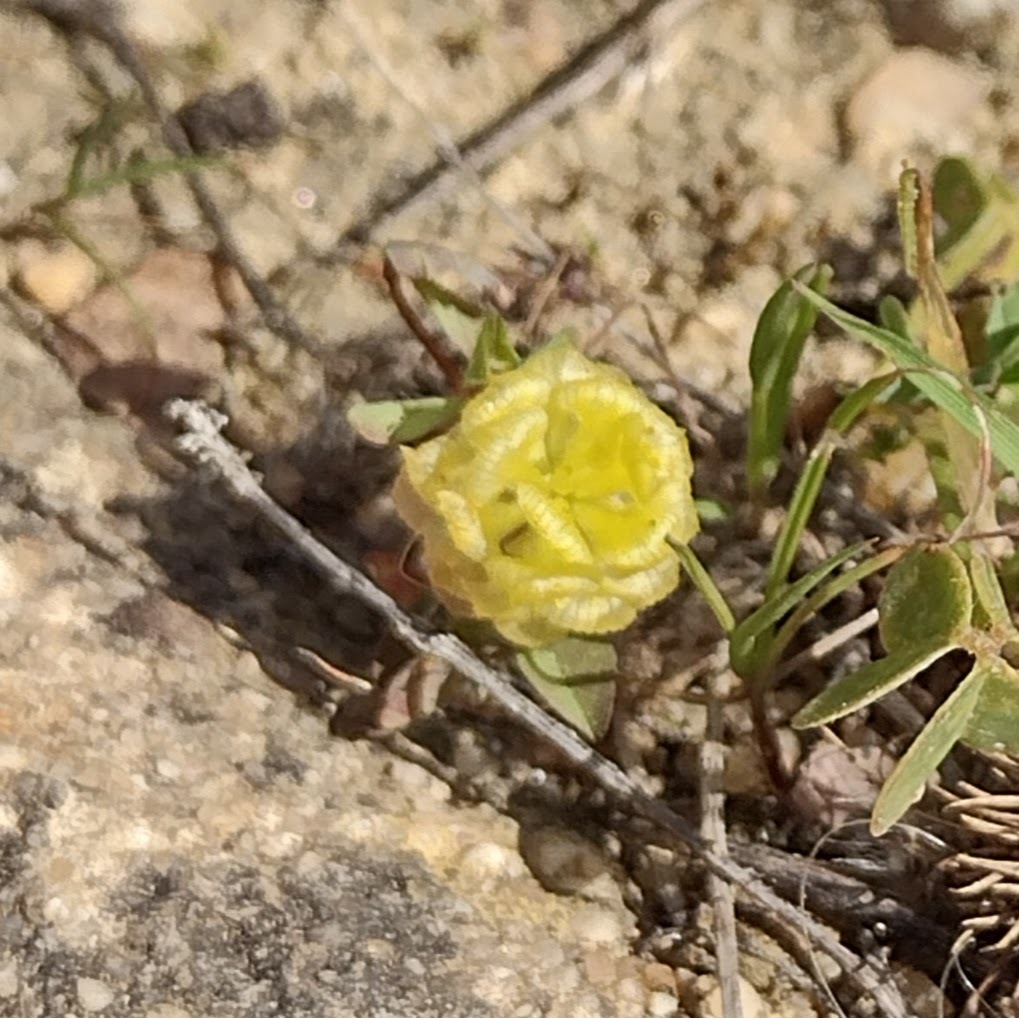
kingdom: Plantae
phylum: Tracheophyta
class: Magnoliopsida
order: Fabales
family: Fabaceae
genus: Trifolium
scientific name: Trifolium campestre
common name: Field clover
